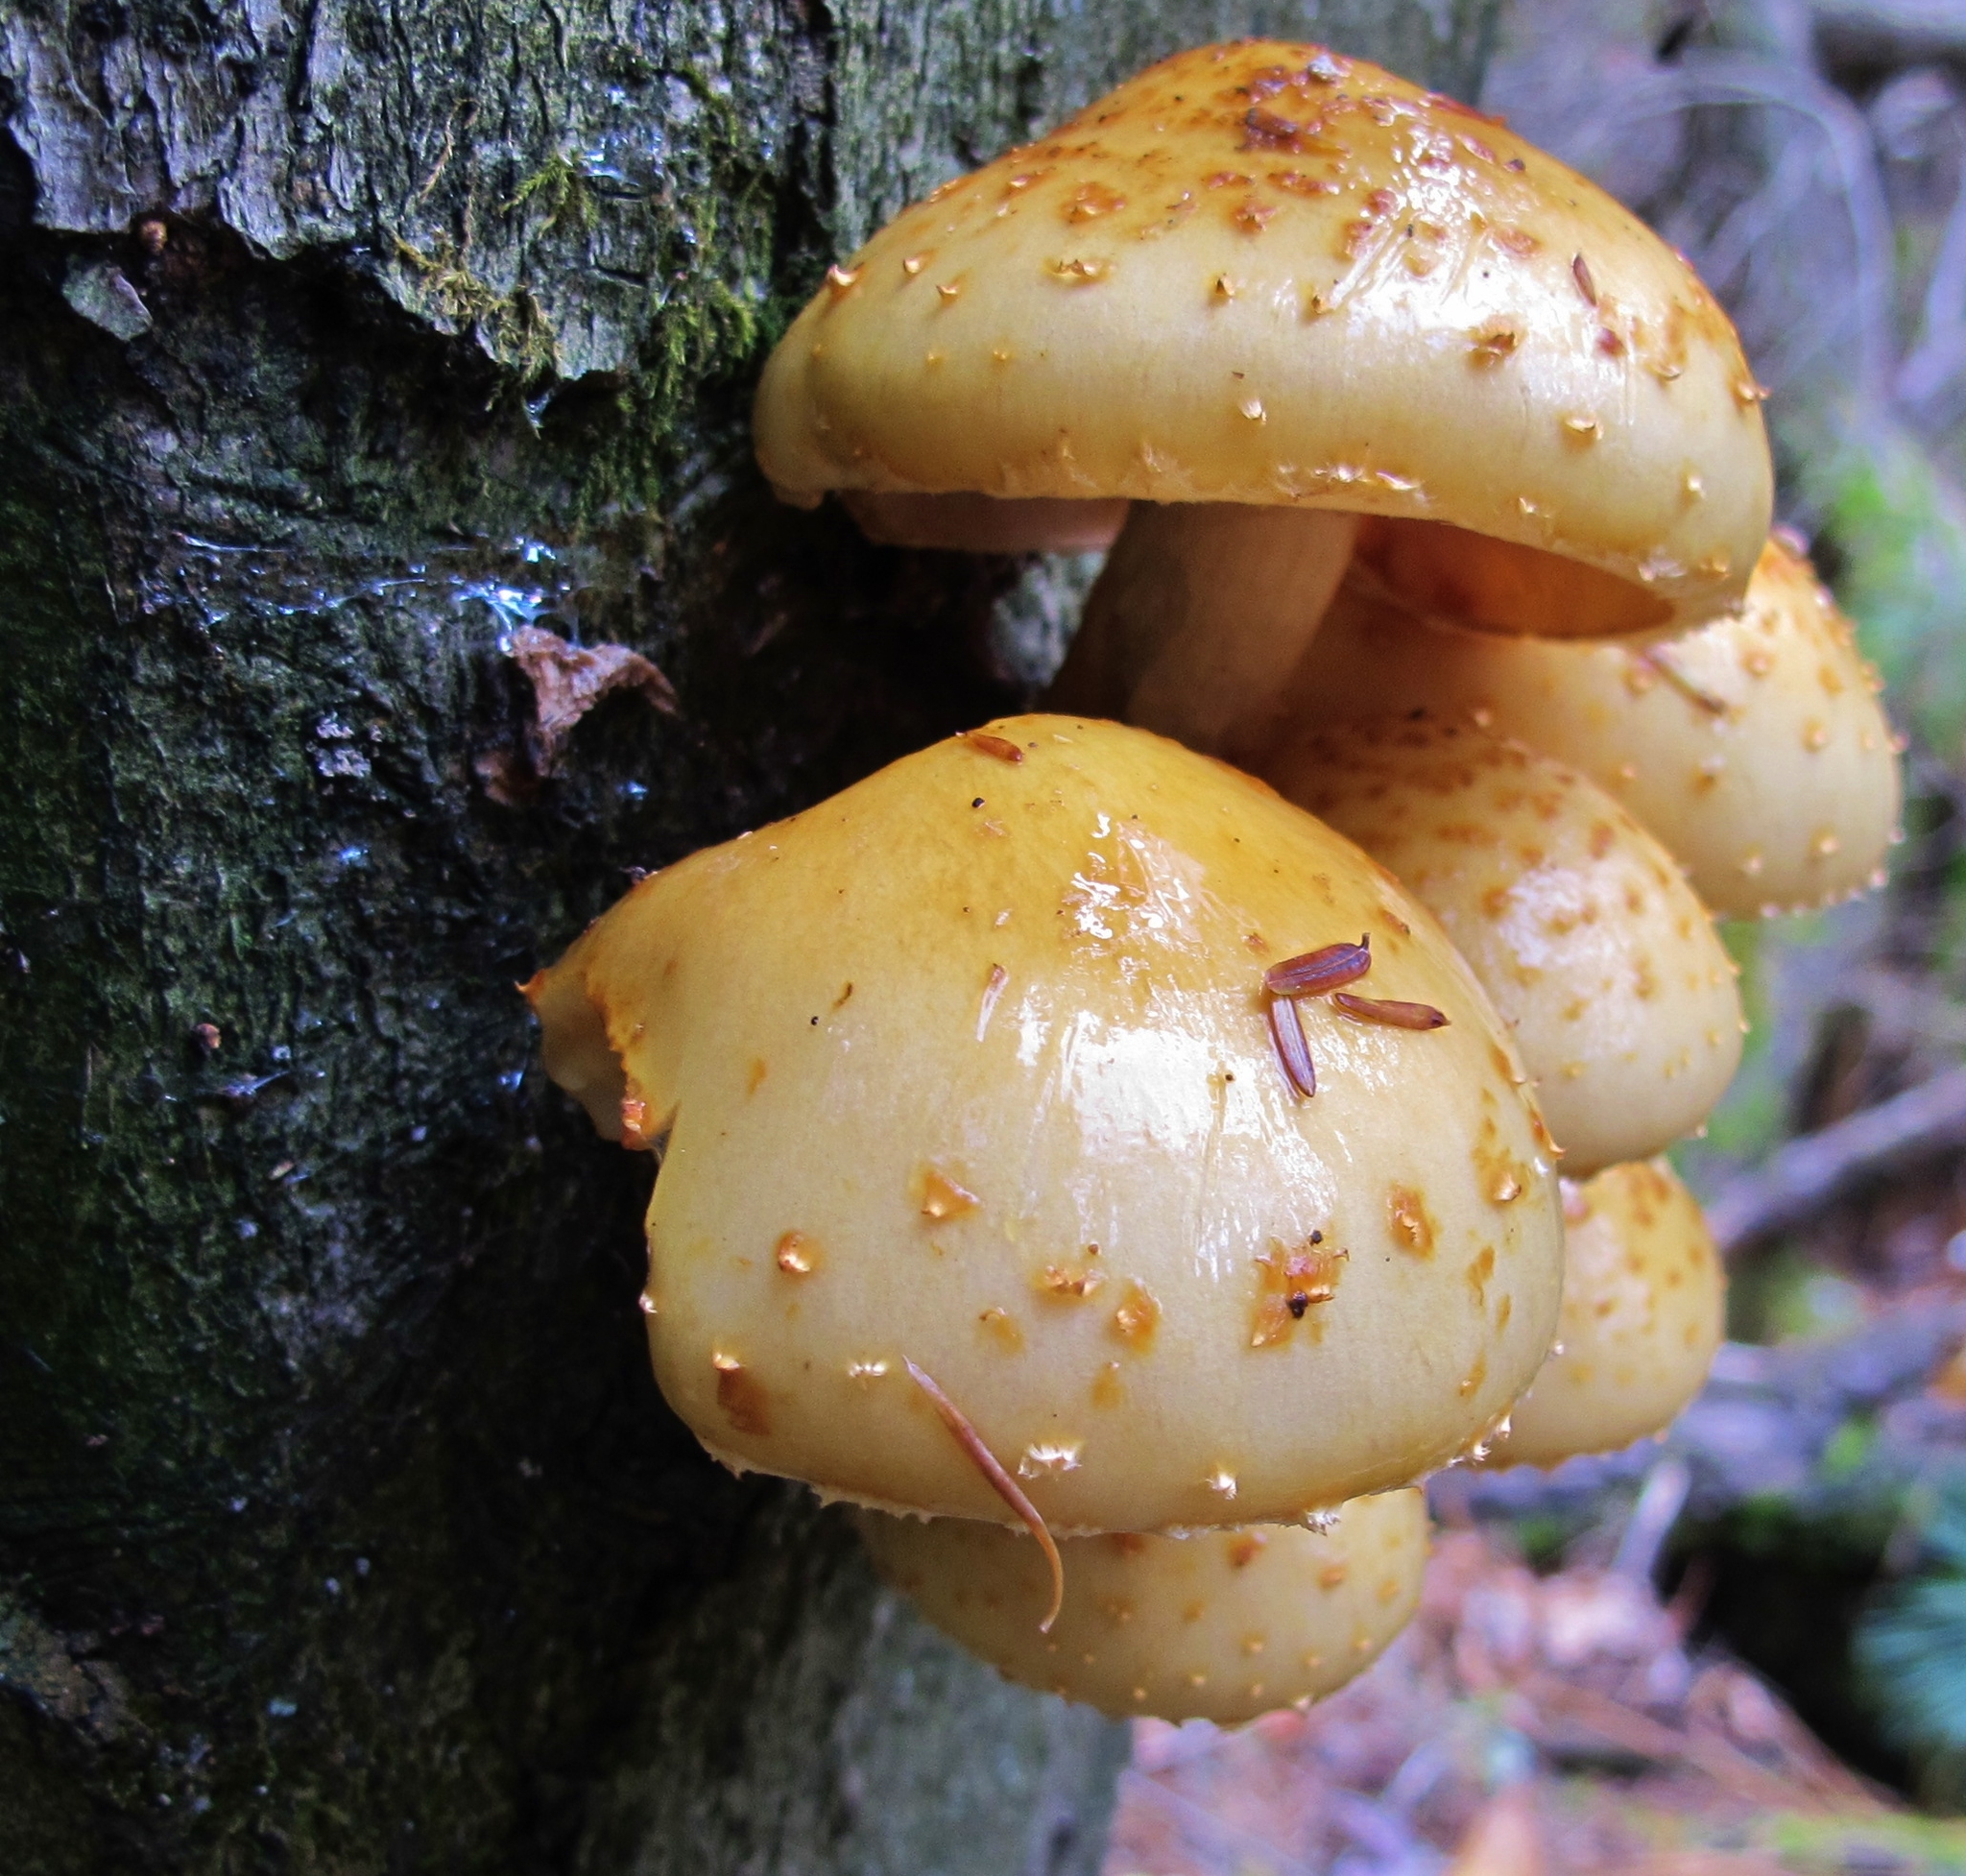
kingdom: Fungi
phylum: Basidiomycota
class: Agaricomycetes
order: Agaricales
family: Strophariaceae
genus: Pholiota
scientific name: Pholiota aurivella
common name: Golden scalycap
